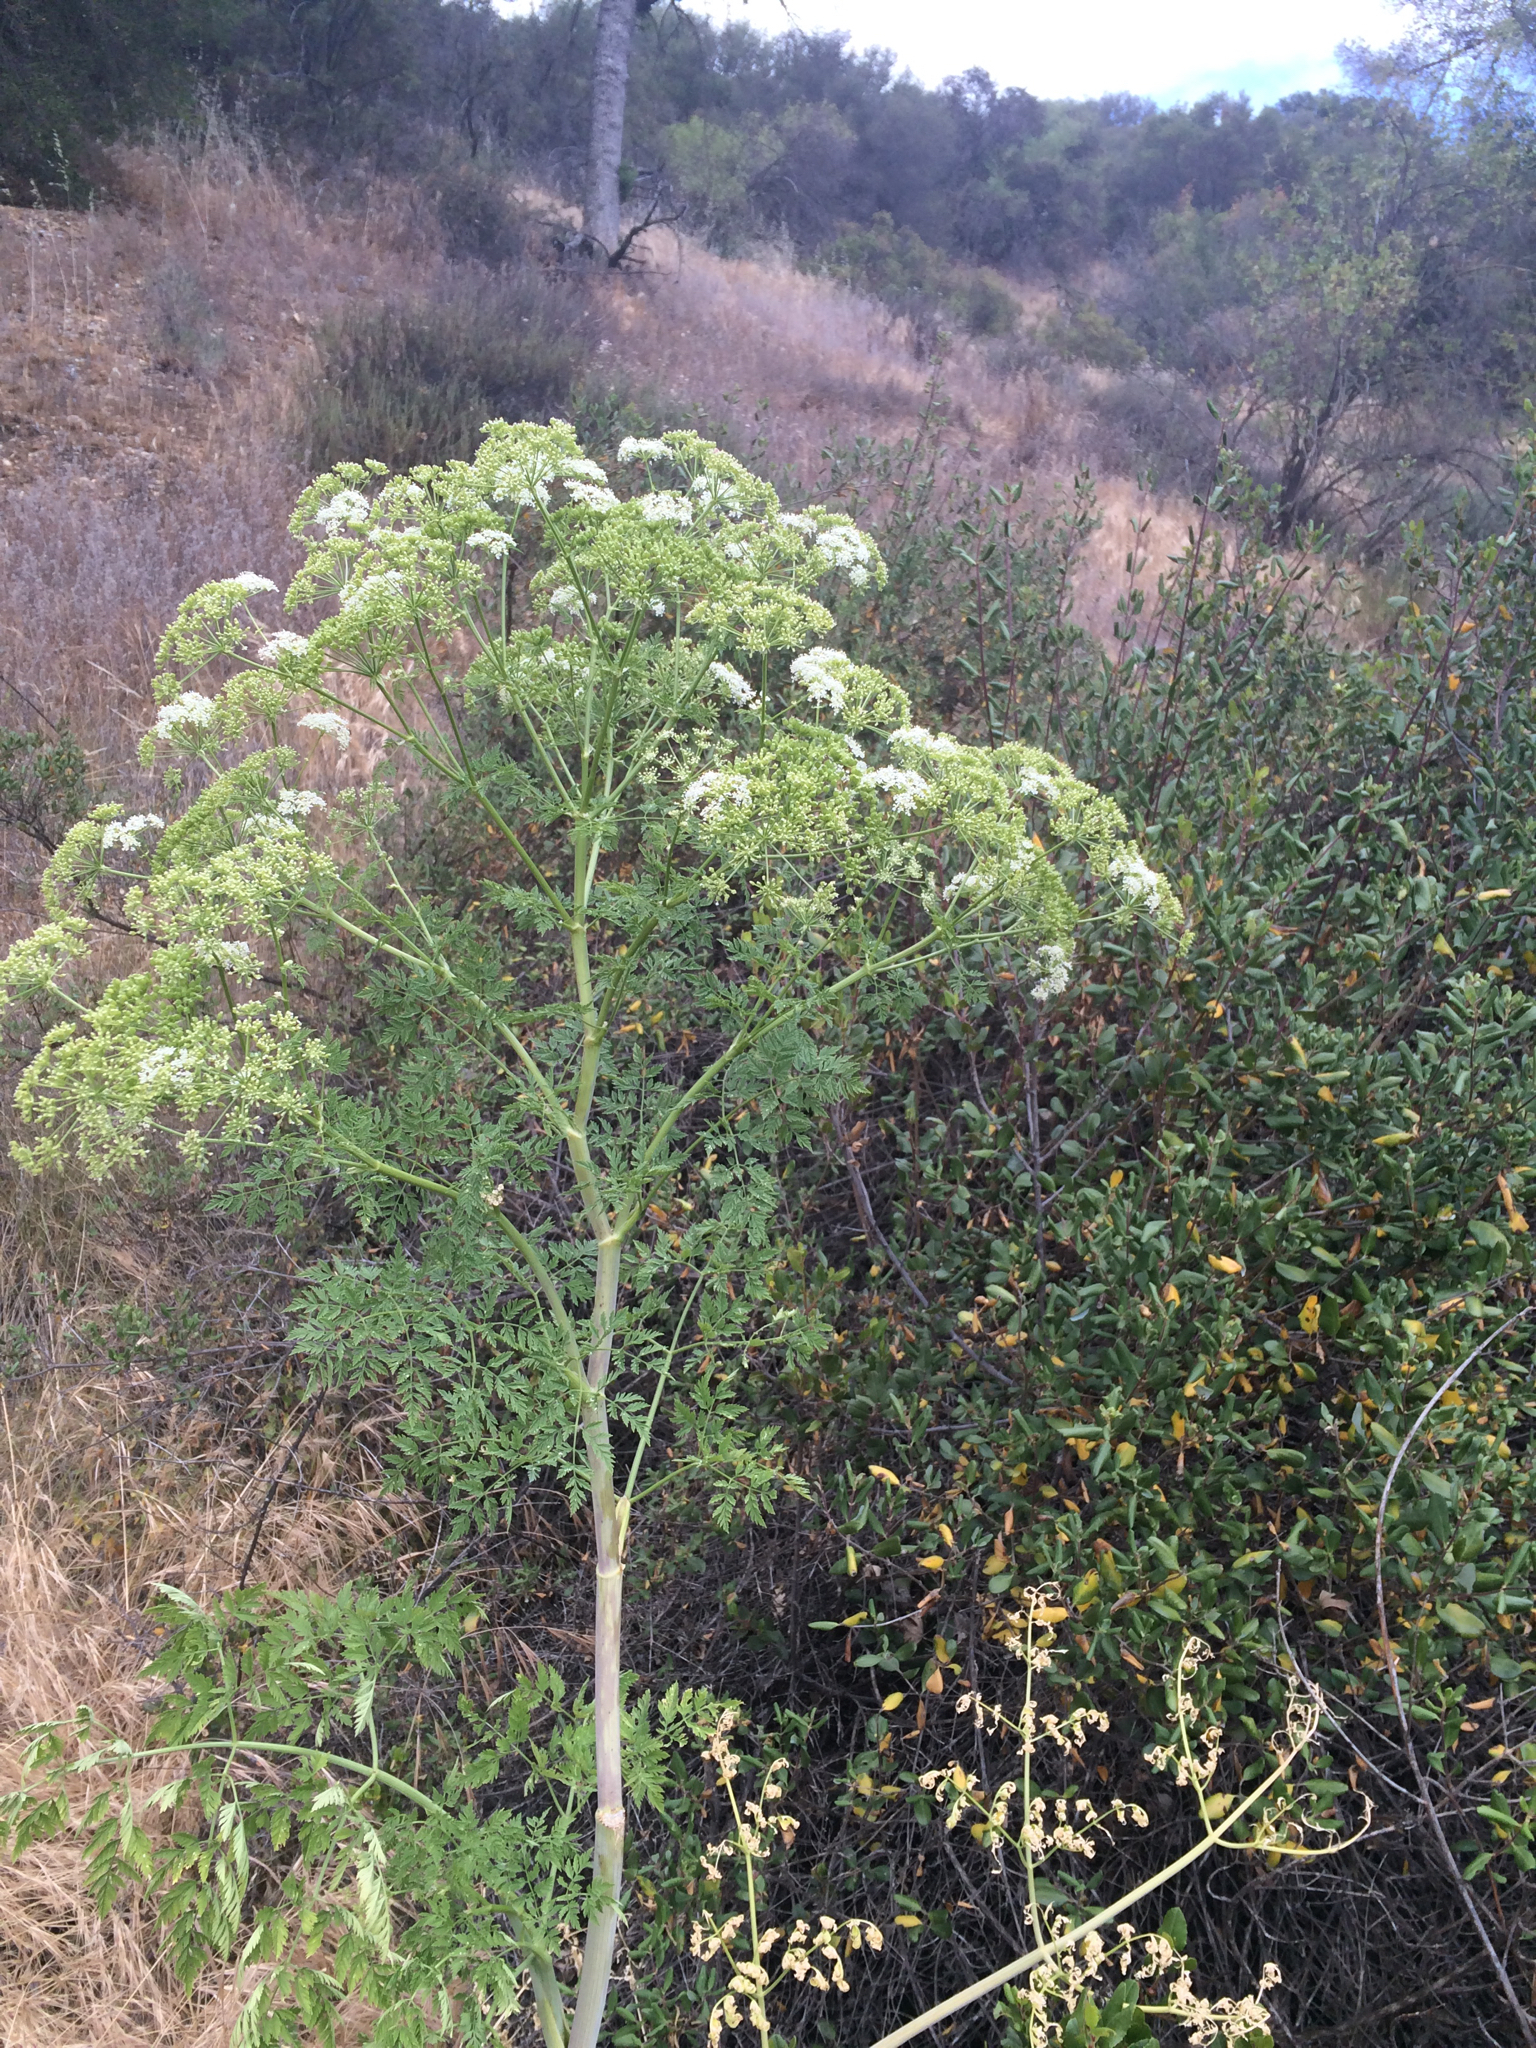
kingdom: Plantae
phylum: Tracheophyta
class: Magnoliopsida
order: Apiales
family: Apiaceae
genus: Conium
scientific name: Conium maculatum
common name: Hemlock
